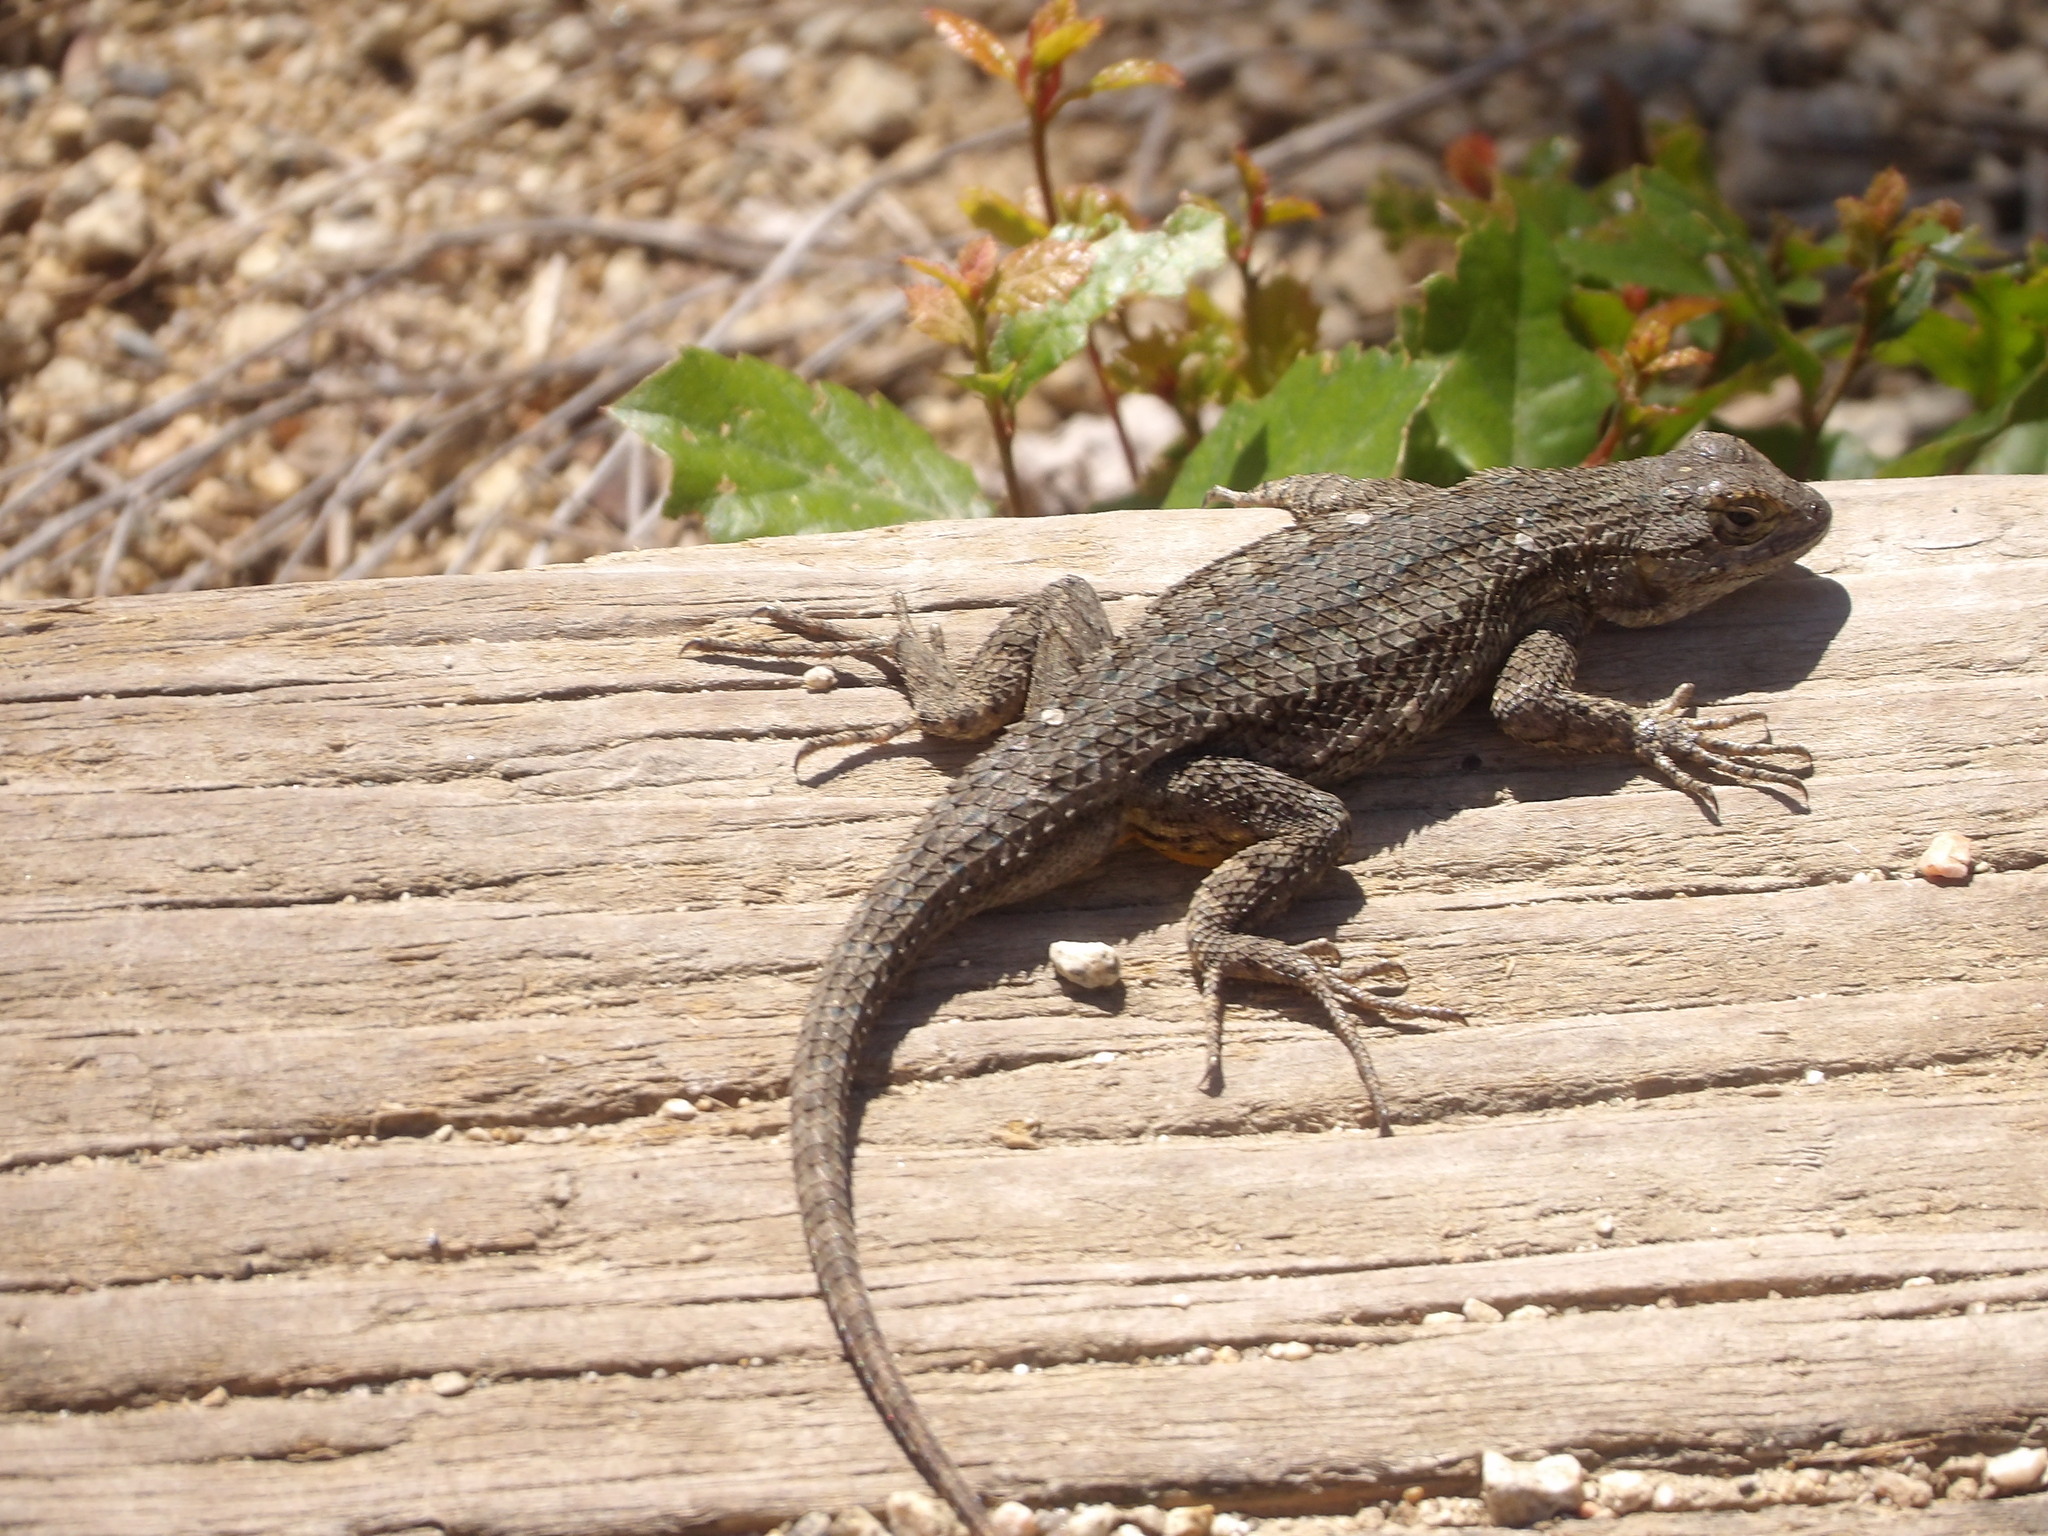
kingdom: Animalia
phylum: Chordata
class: Squamata
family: Phrynosomatidae
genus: Sceloporus
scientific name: Sceloporus occidentalis
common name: Western fence lizard
